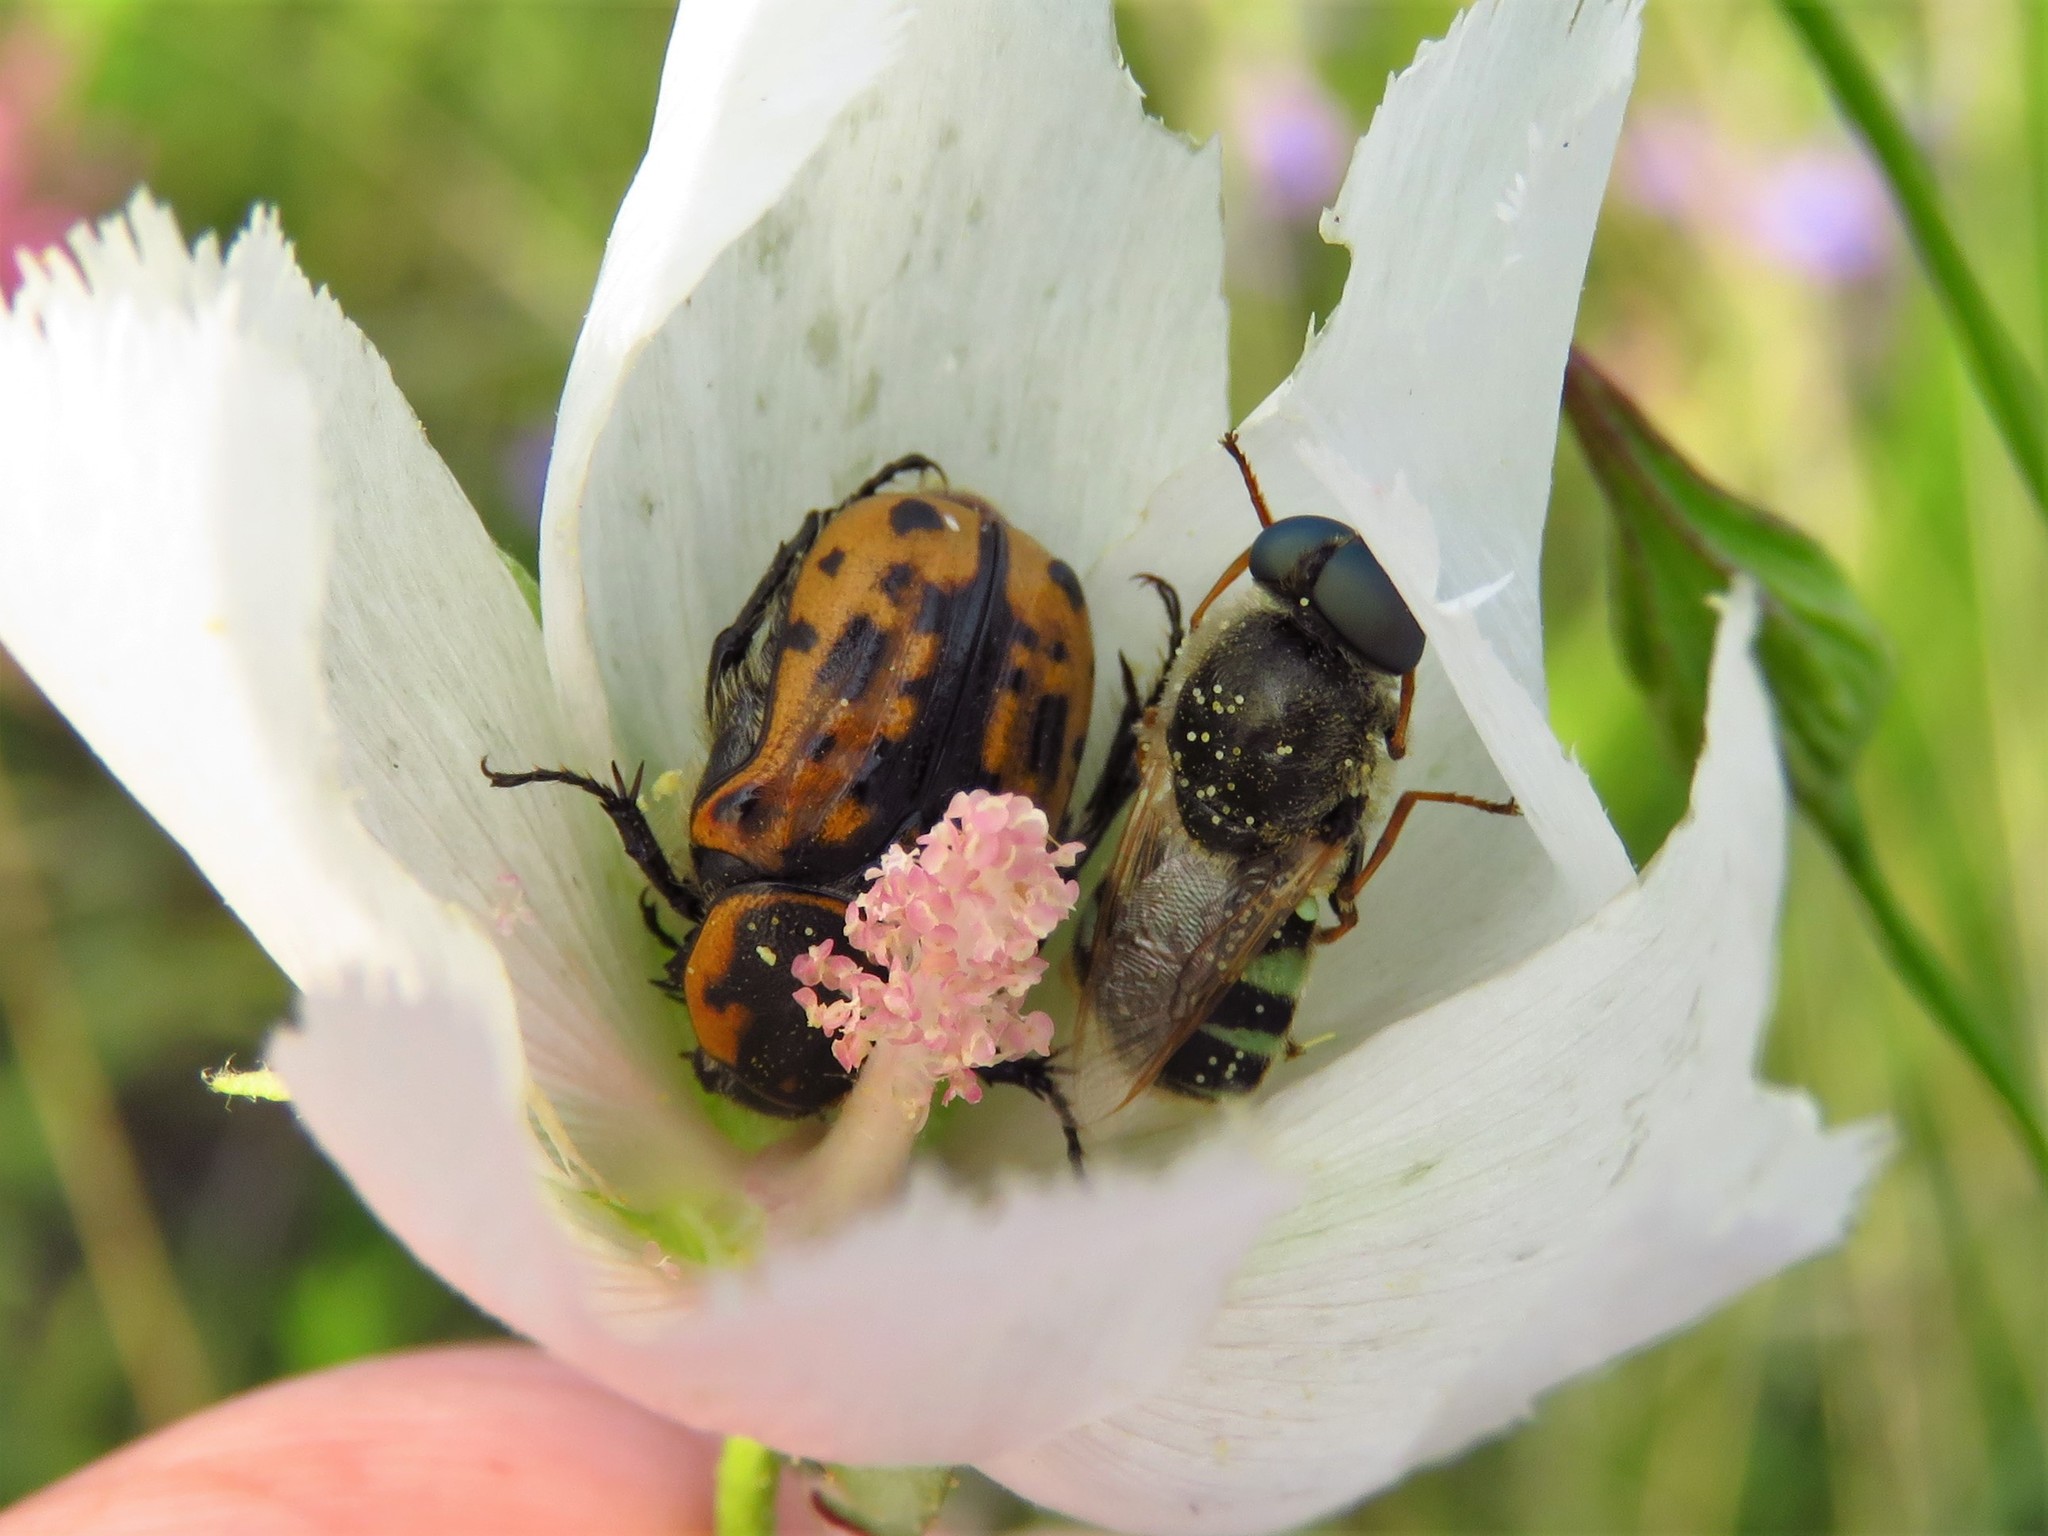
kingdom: Animalia
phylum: Arthropoda
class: Insecta
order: Coleoptera
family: Scarabaeidae
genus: Euphoria
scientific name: Euphoria kernii
